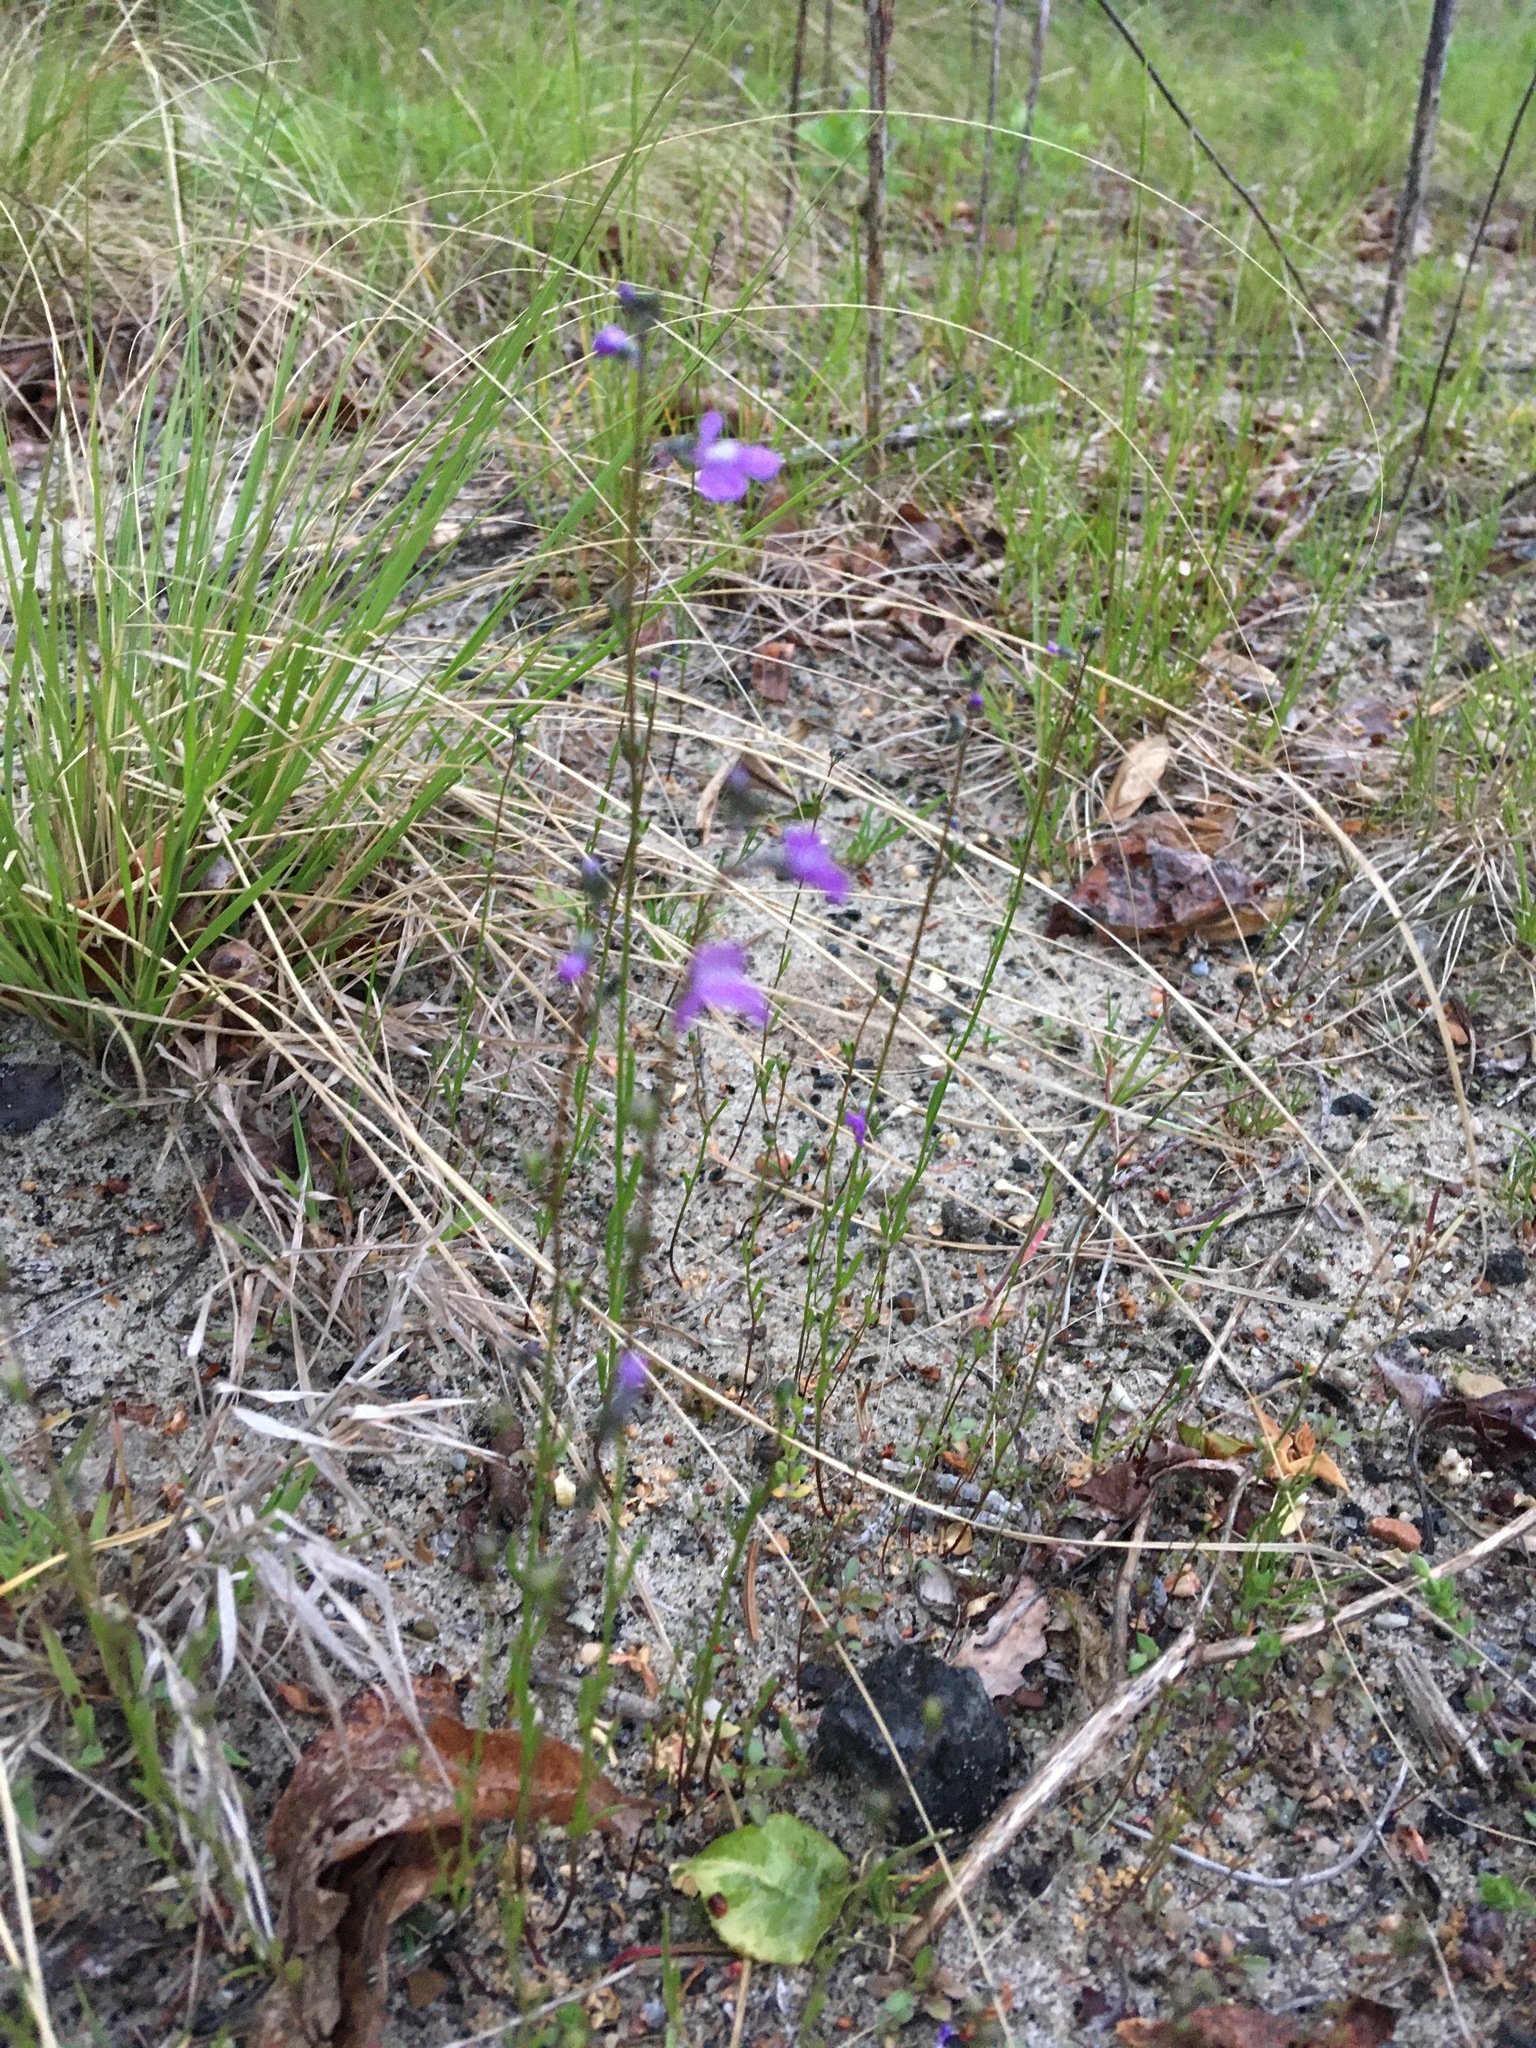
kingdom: Plantae
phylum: Tracheophyta
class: Magnoliopsida
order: Lamiales
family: Plantaginaceae
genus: Nuttallanthus
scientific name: Nuttallanthus canadensis
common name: Blue toadflax
